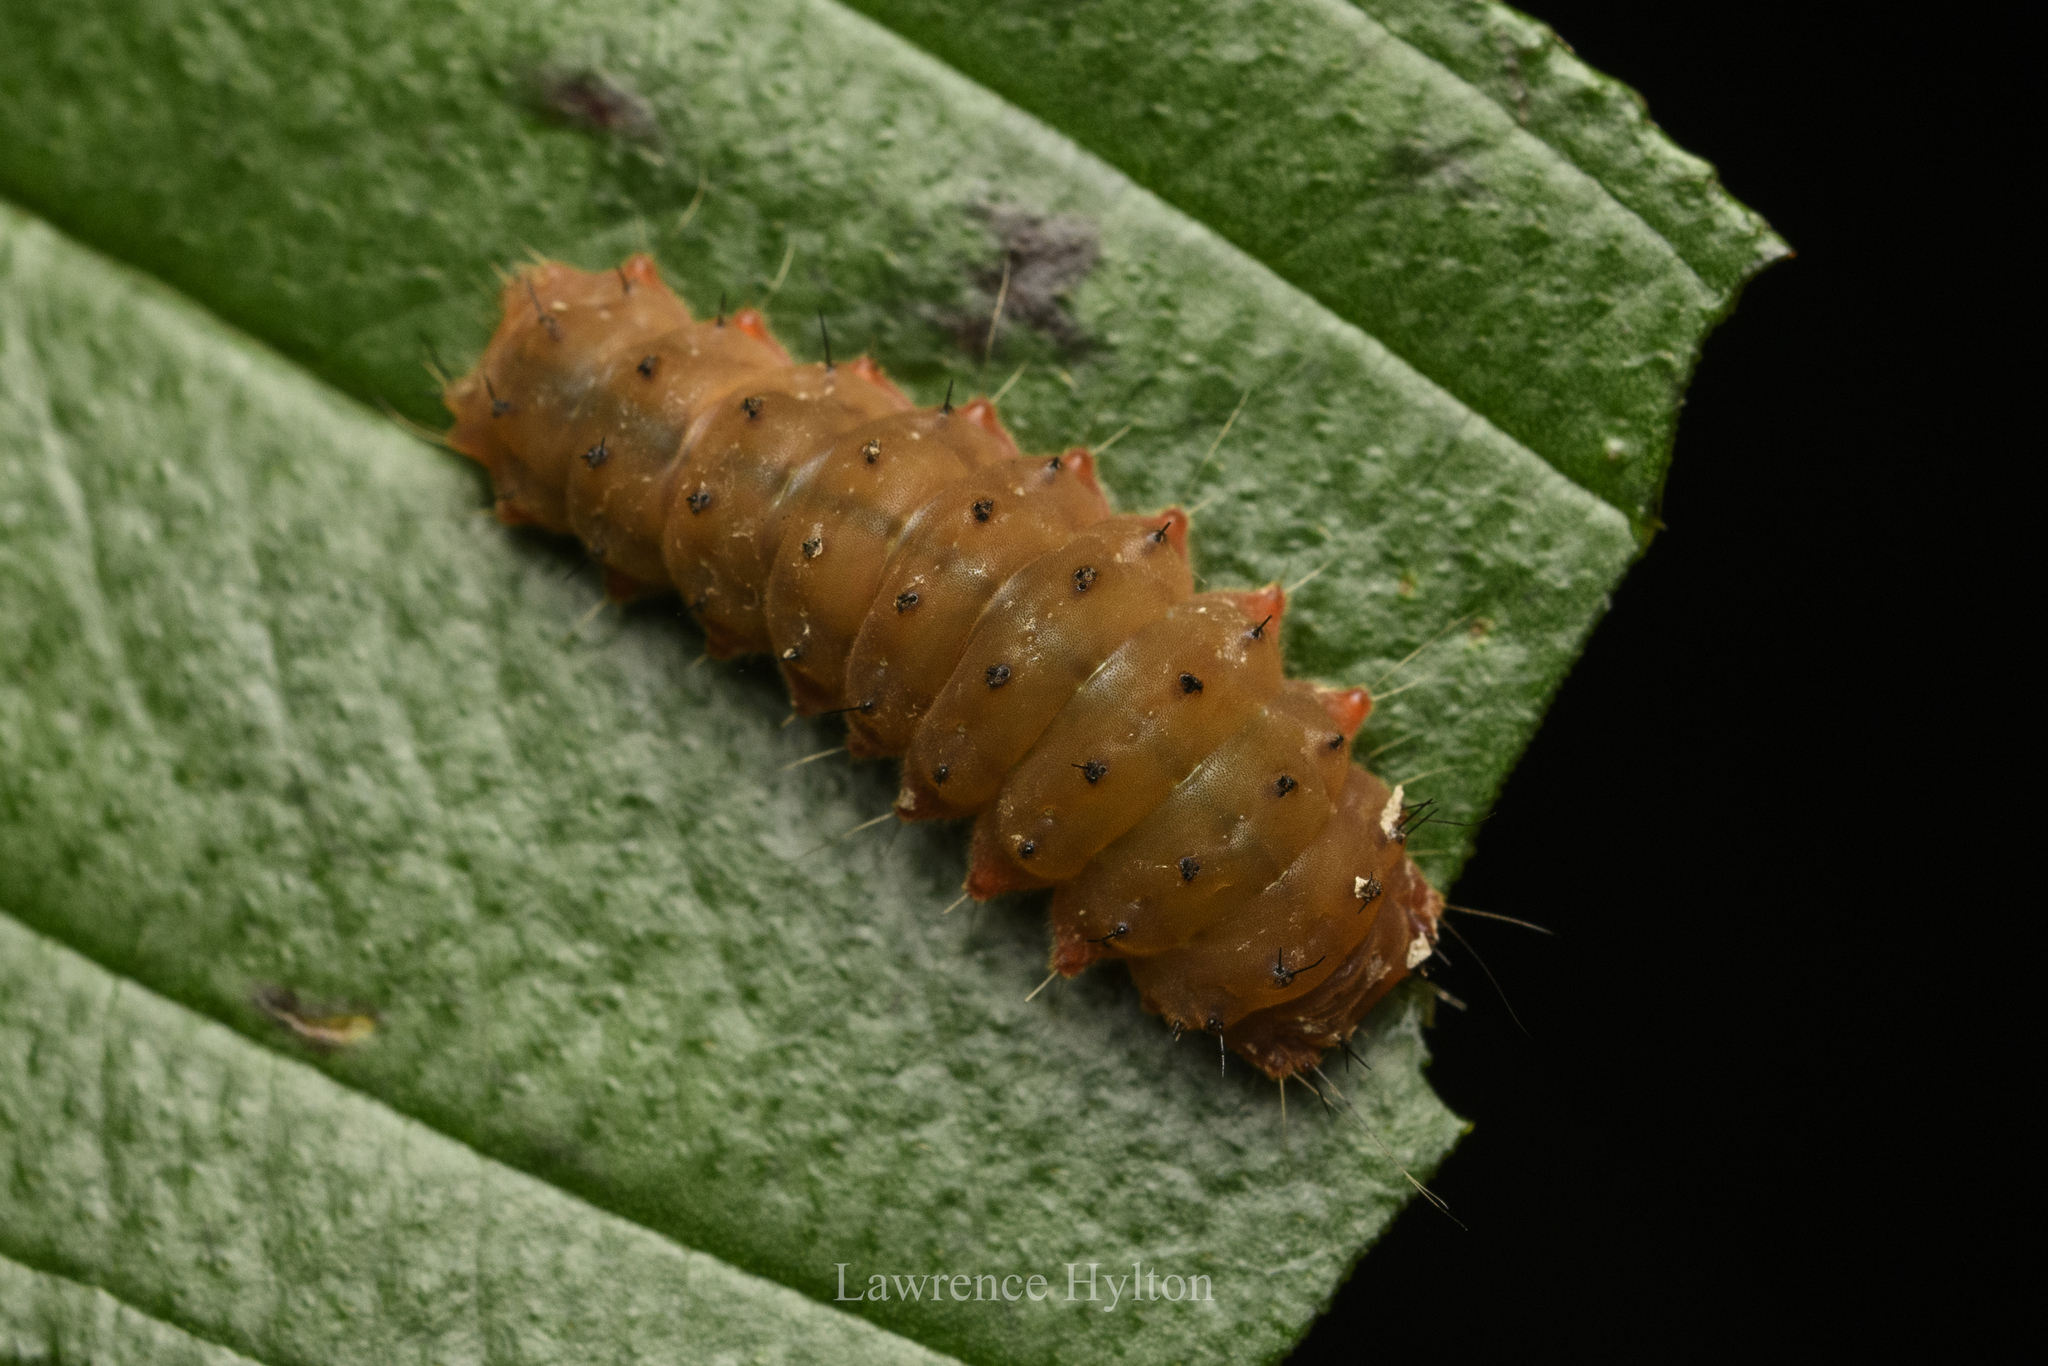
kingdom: Animalia
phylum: Arthropoda
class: Insecta
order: Lepidoptera
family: Zygaenidae
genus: Trypanophora
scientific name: Trypanophora semihyalina
